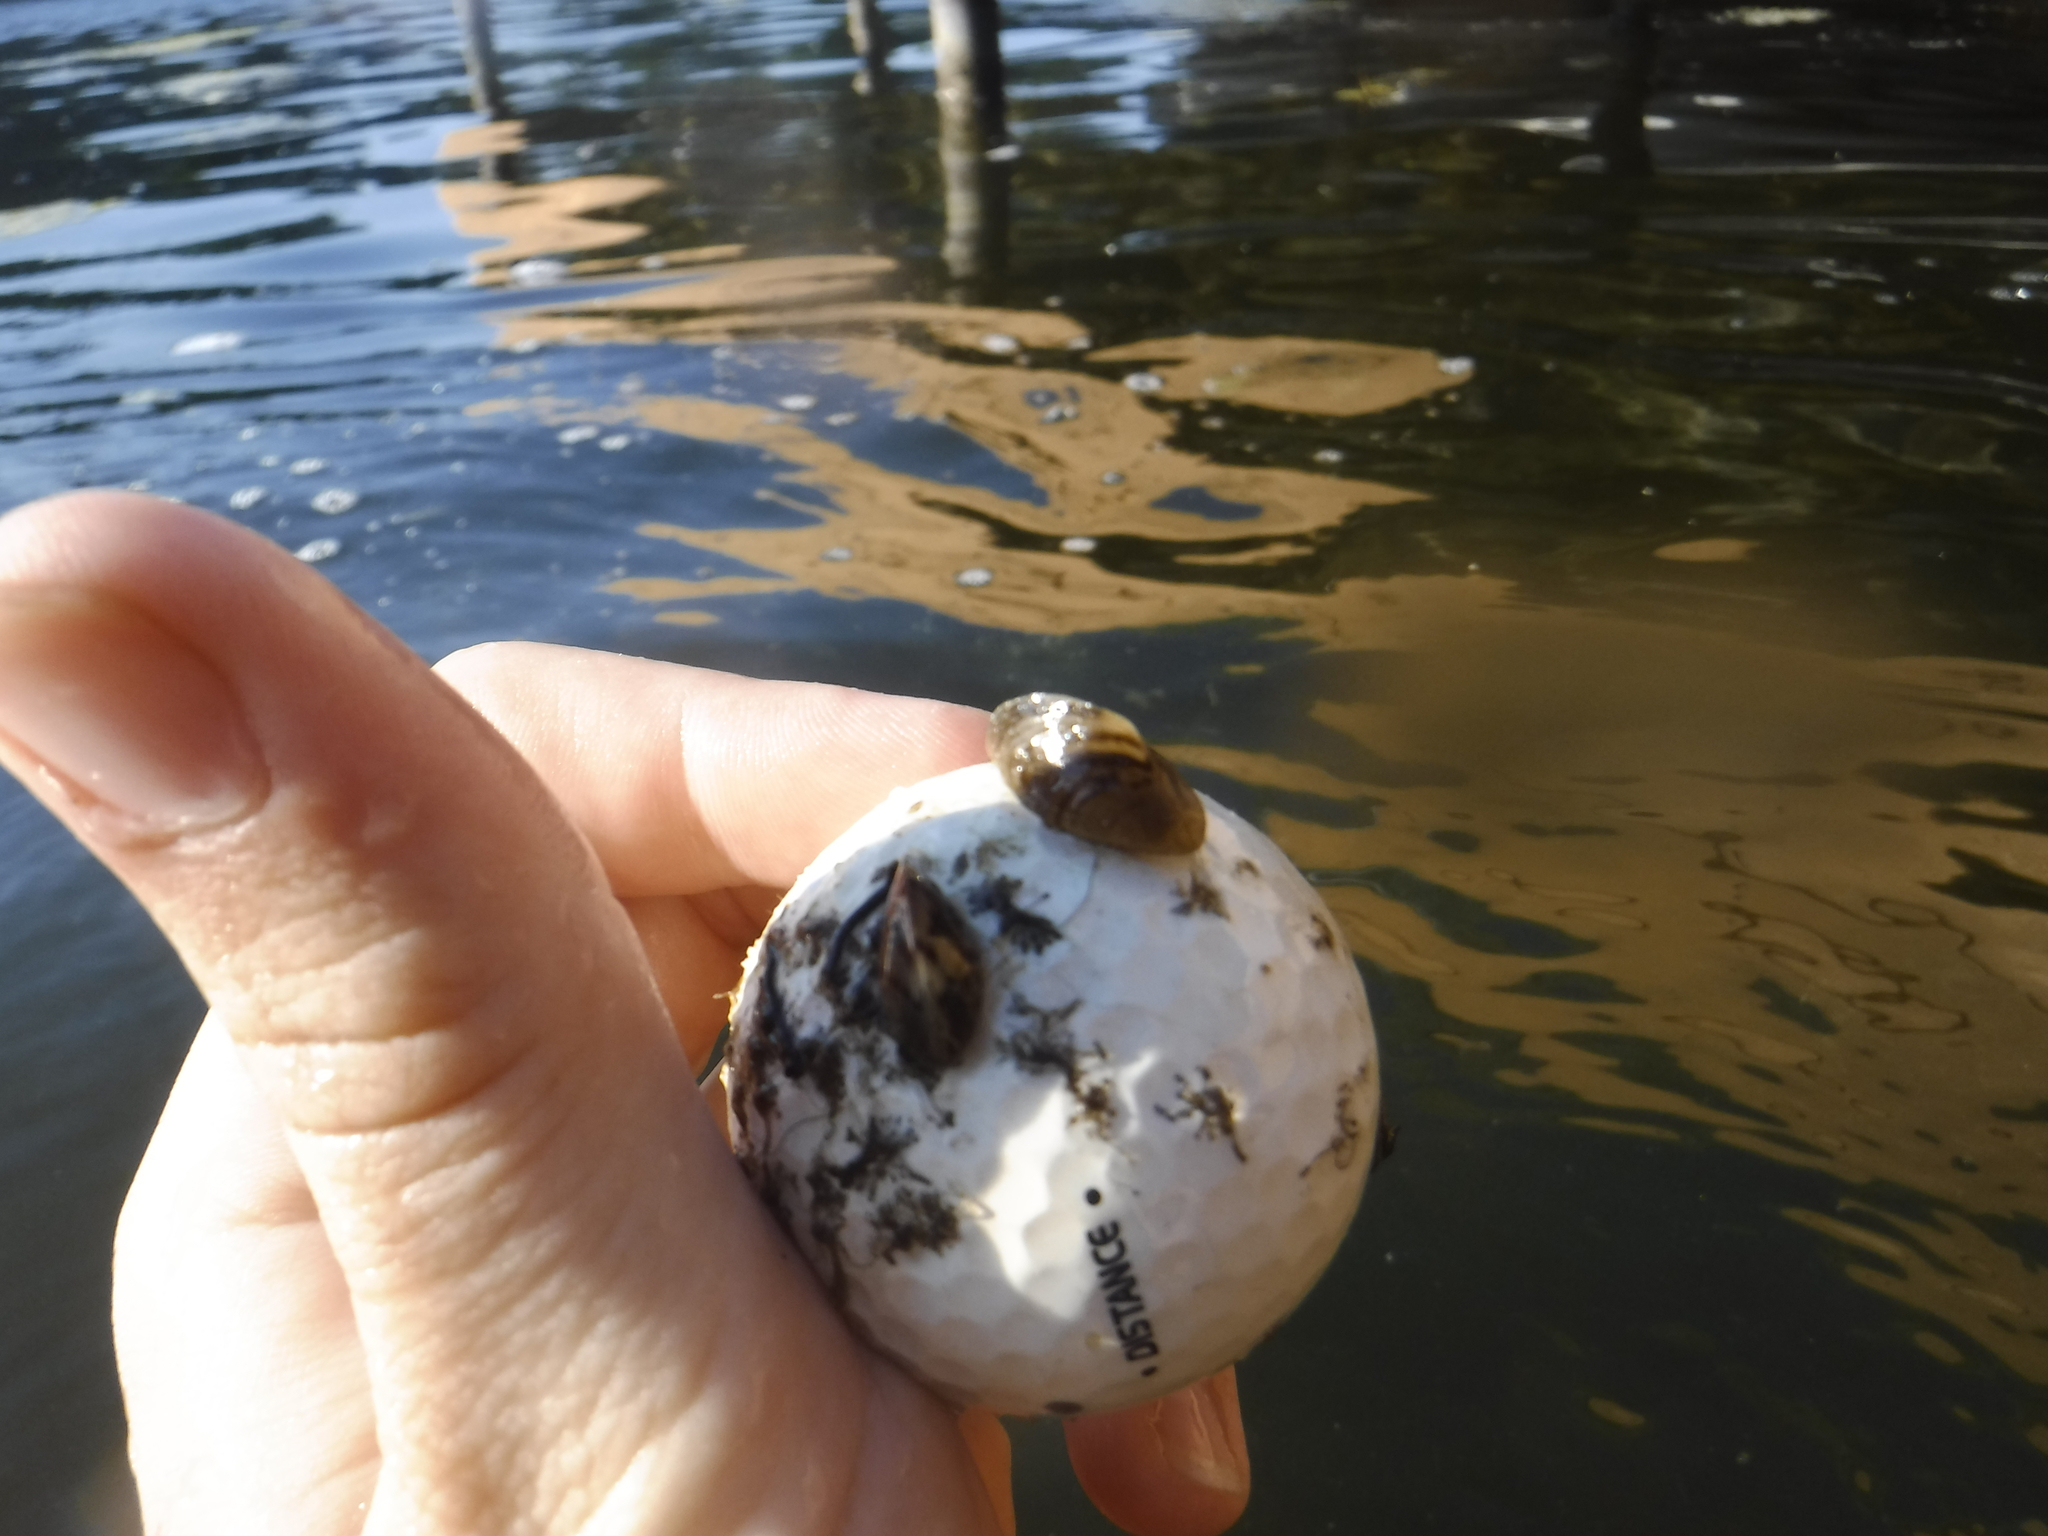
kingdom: Animalia
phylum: Mollusca
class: Bivalvia
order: Myida
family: Dreissenidae
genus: Dreissena
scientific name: Dreissena polymorpha
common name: Zebra mussel
